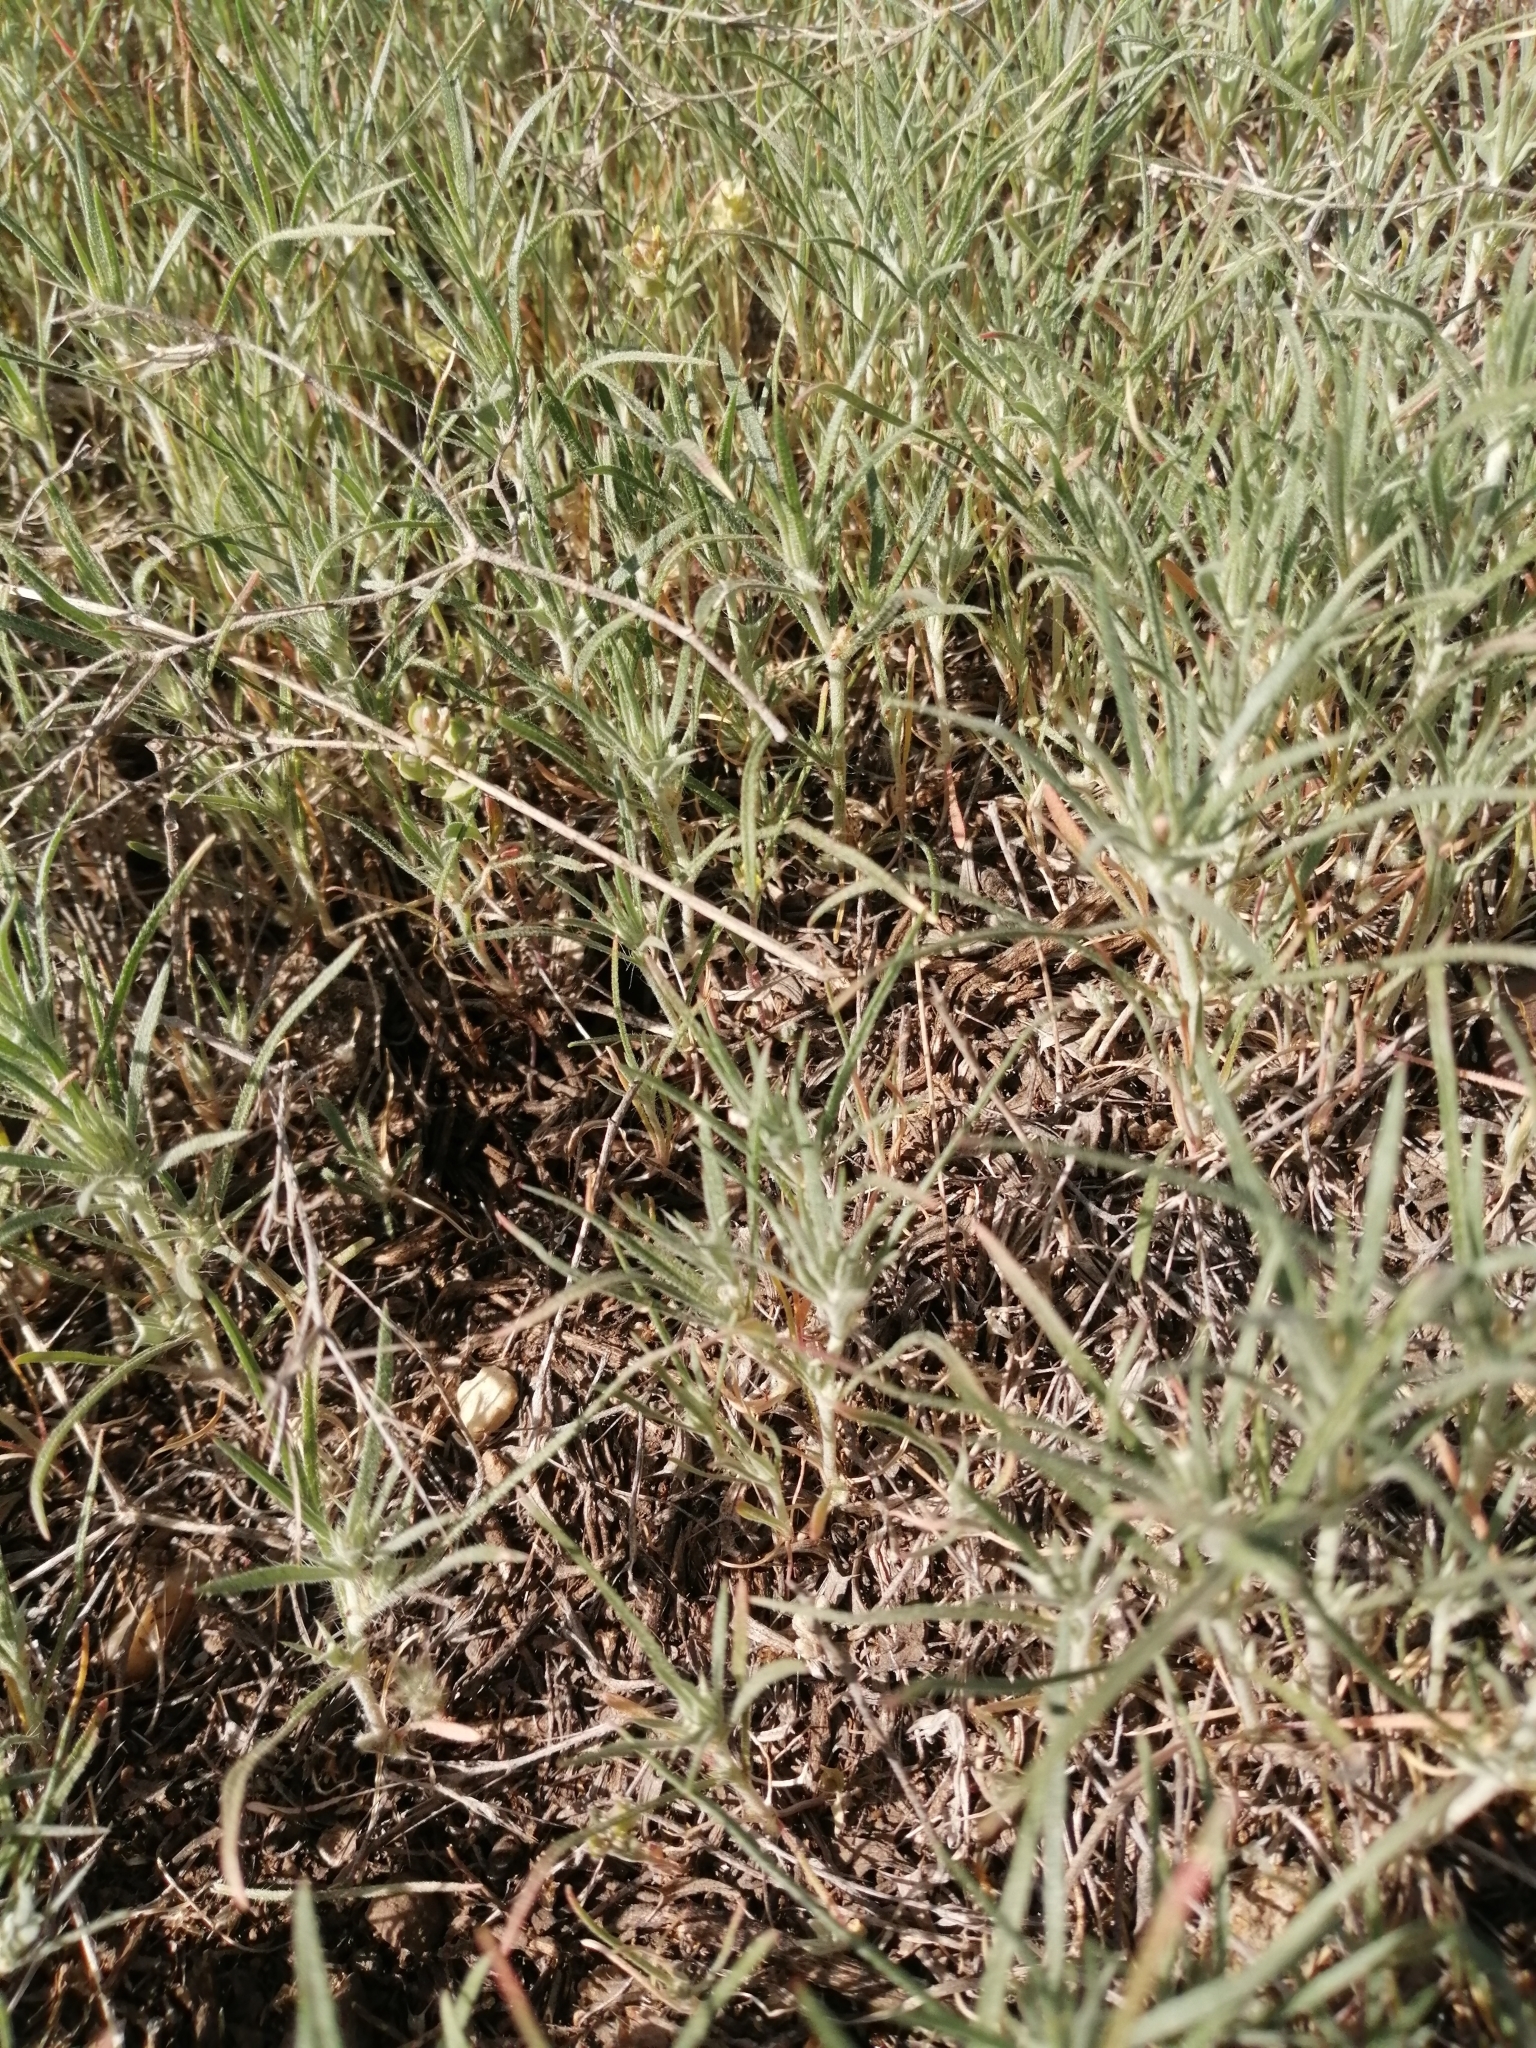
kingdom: Plantae
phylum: Tracheophyta
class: Magnoliopsida
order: Caryophyllales
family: Amaranthaceae
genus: Ceratocarpus
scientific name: Ceratocarpus arenarius
